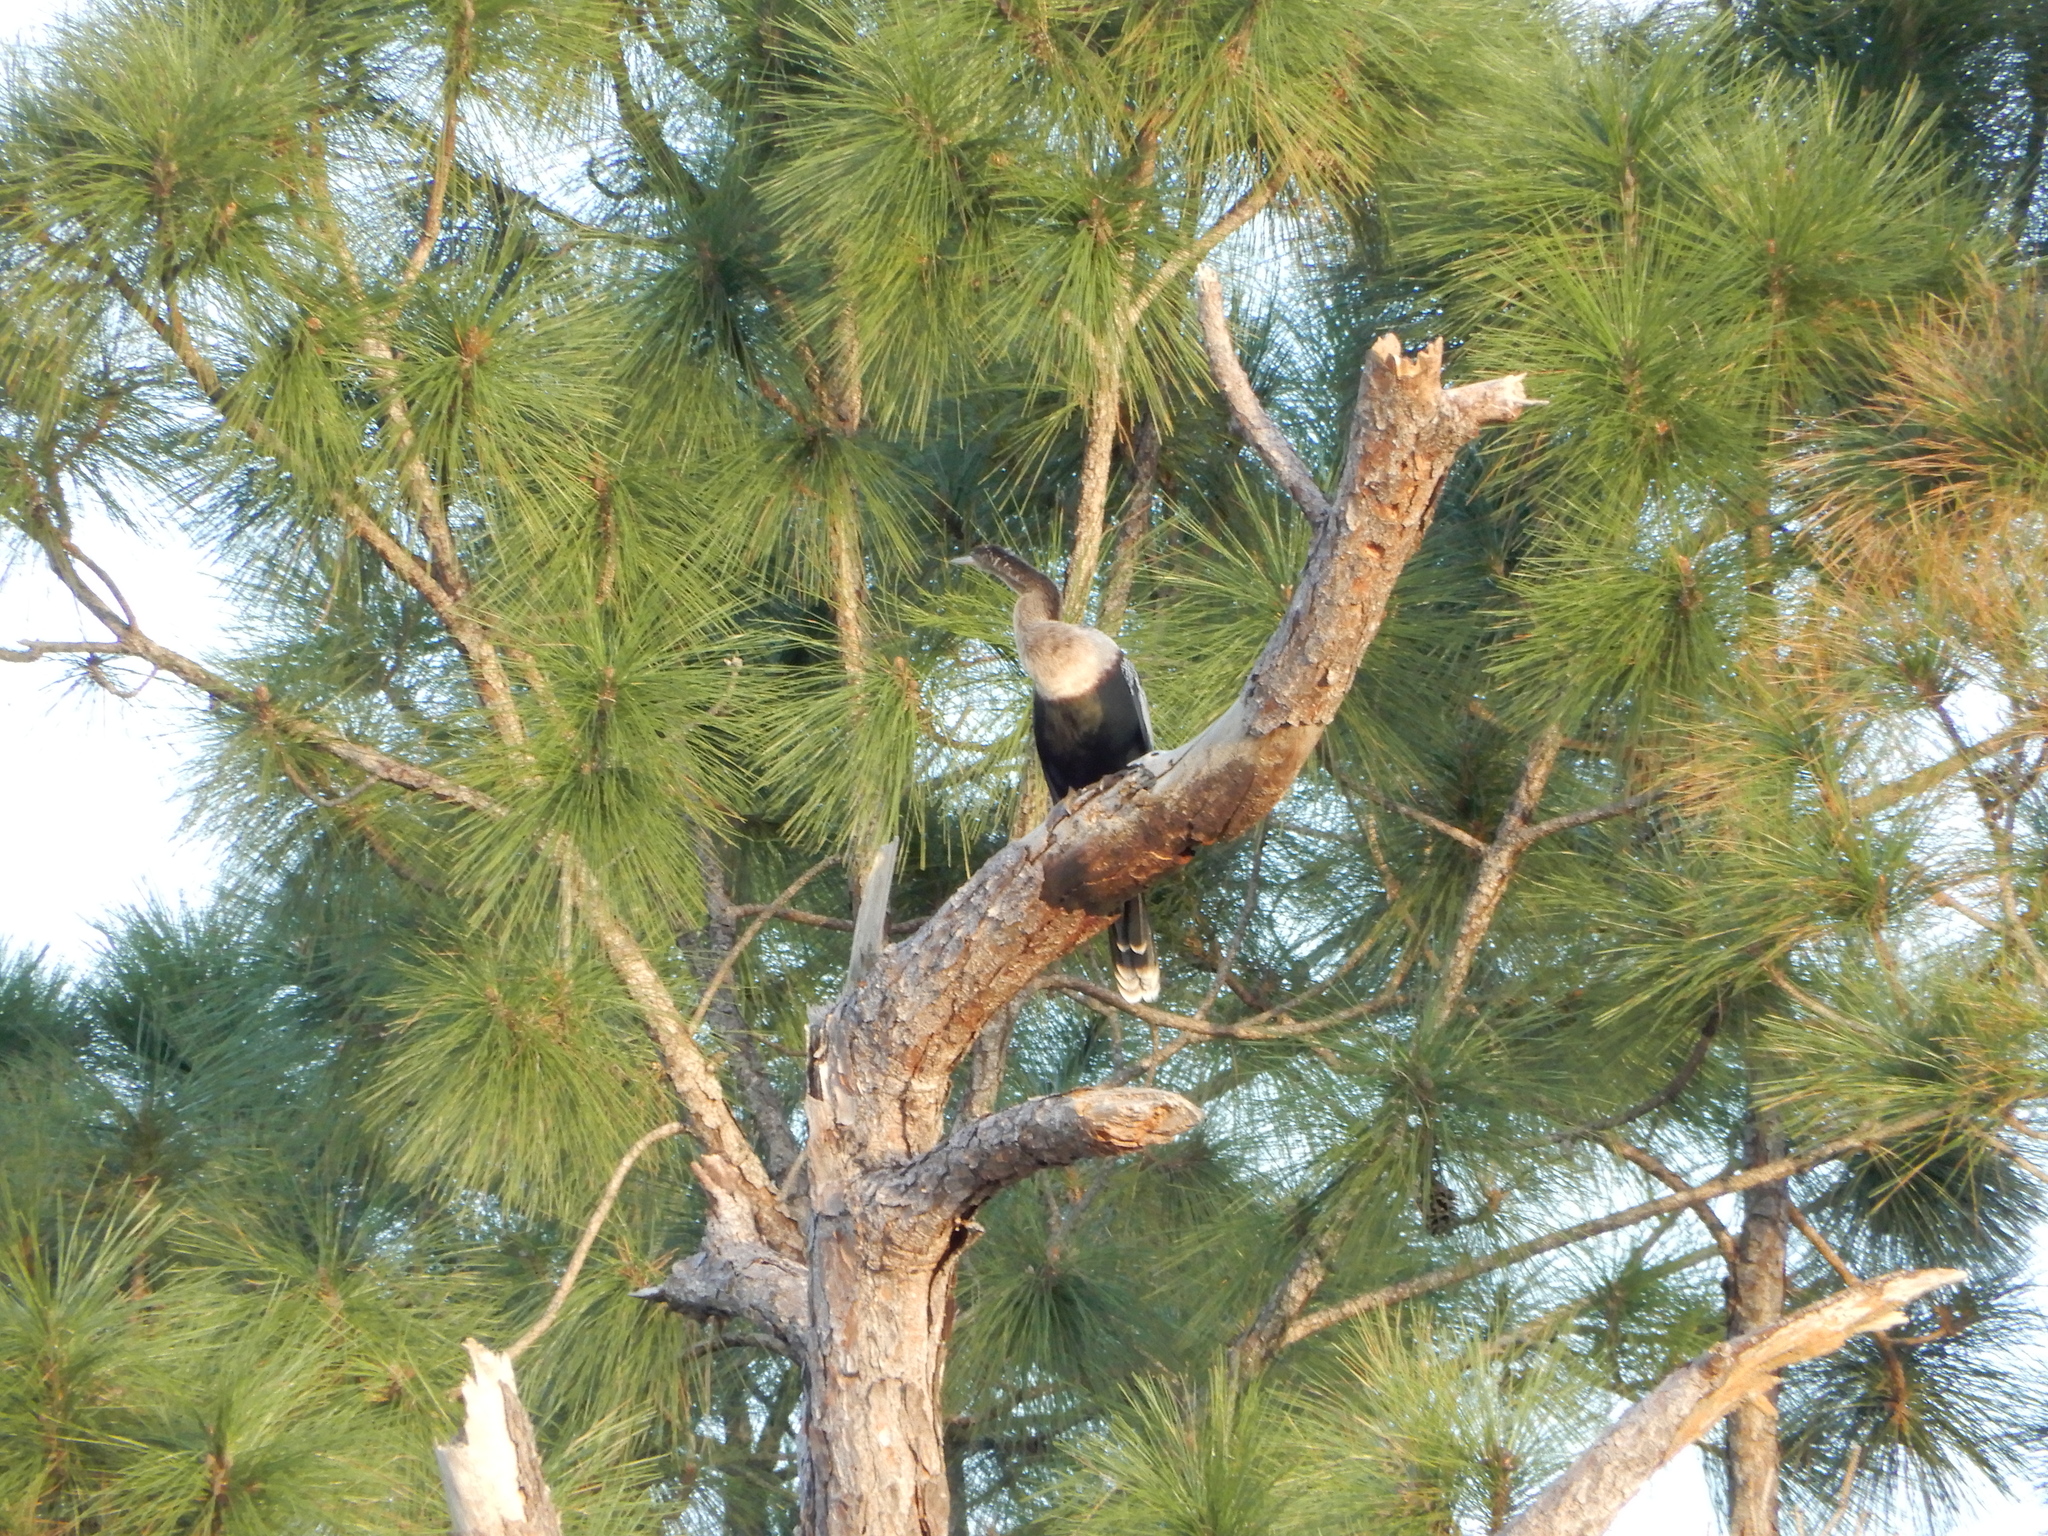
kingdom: Animalia
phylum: Chordata
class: Aves
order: Suliformes
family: Anhingidae
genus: Anhinga
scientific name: Anhinga anhinga
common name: Anhinga
